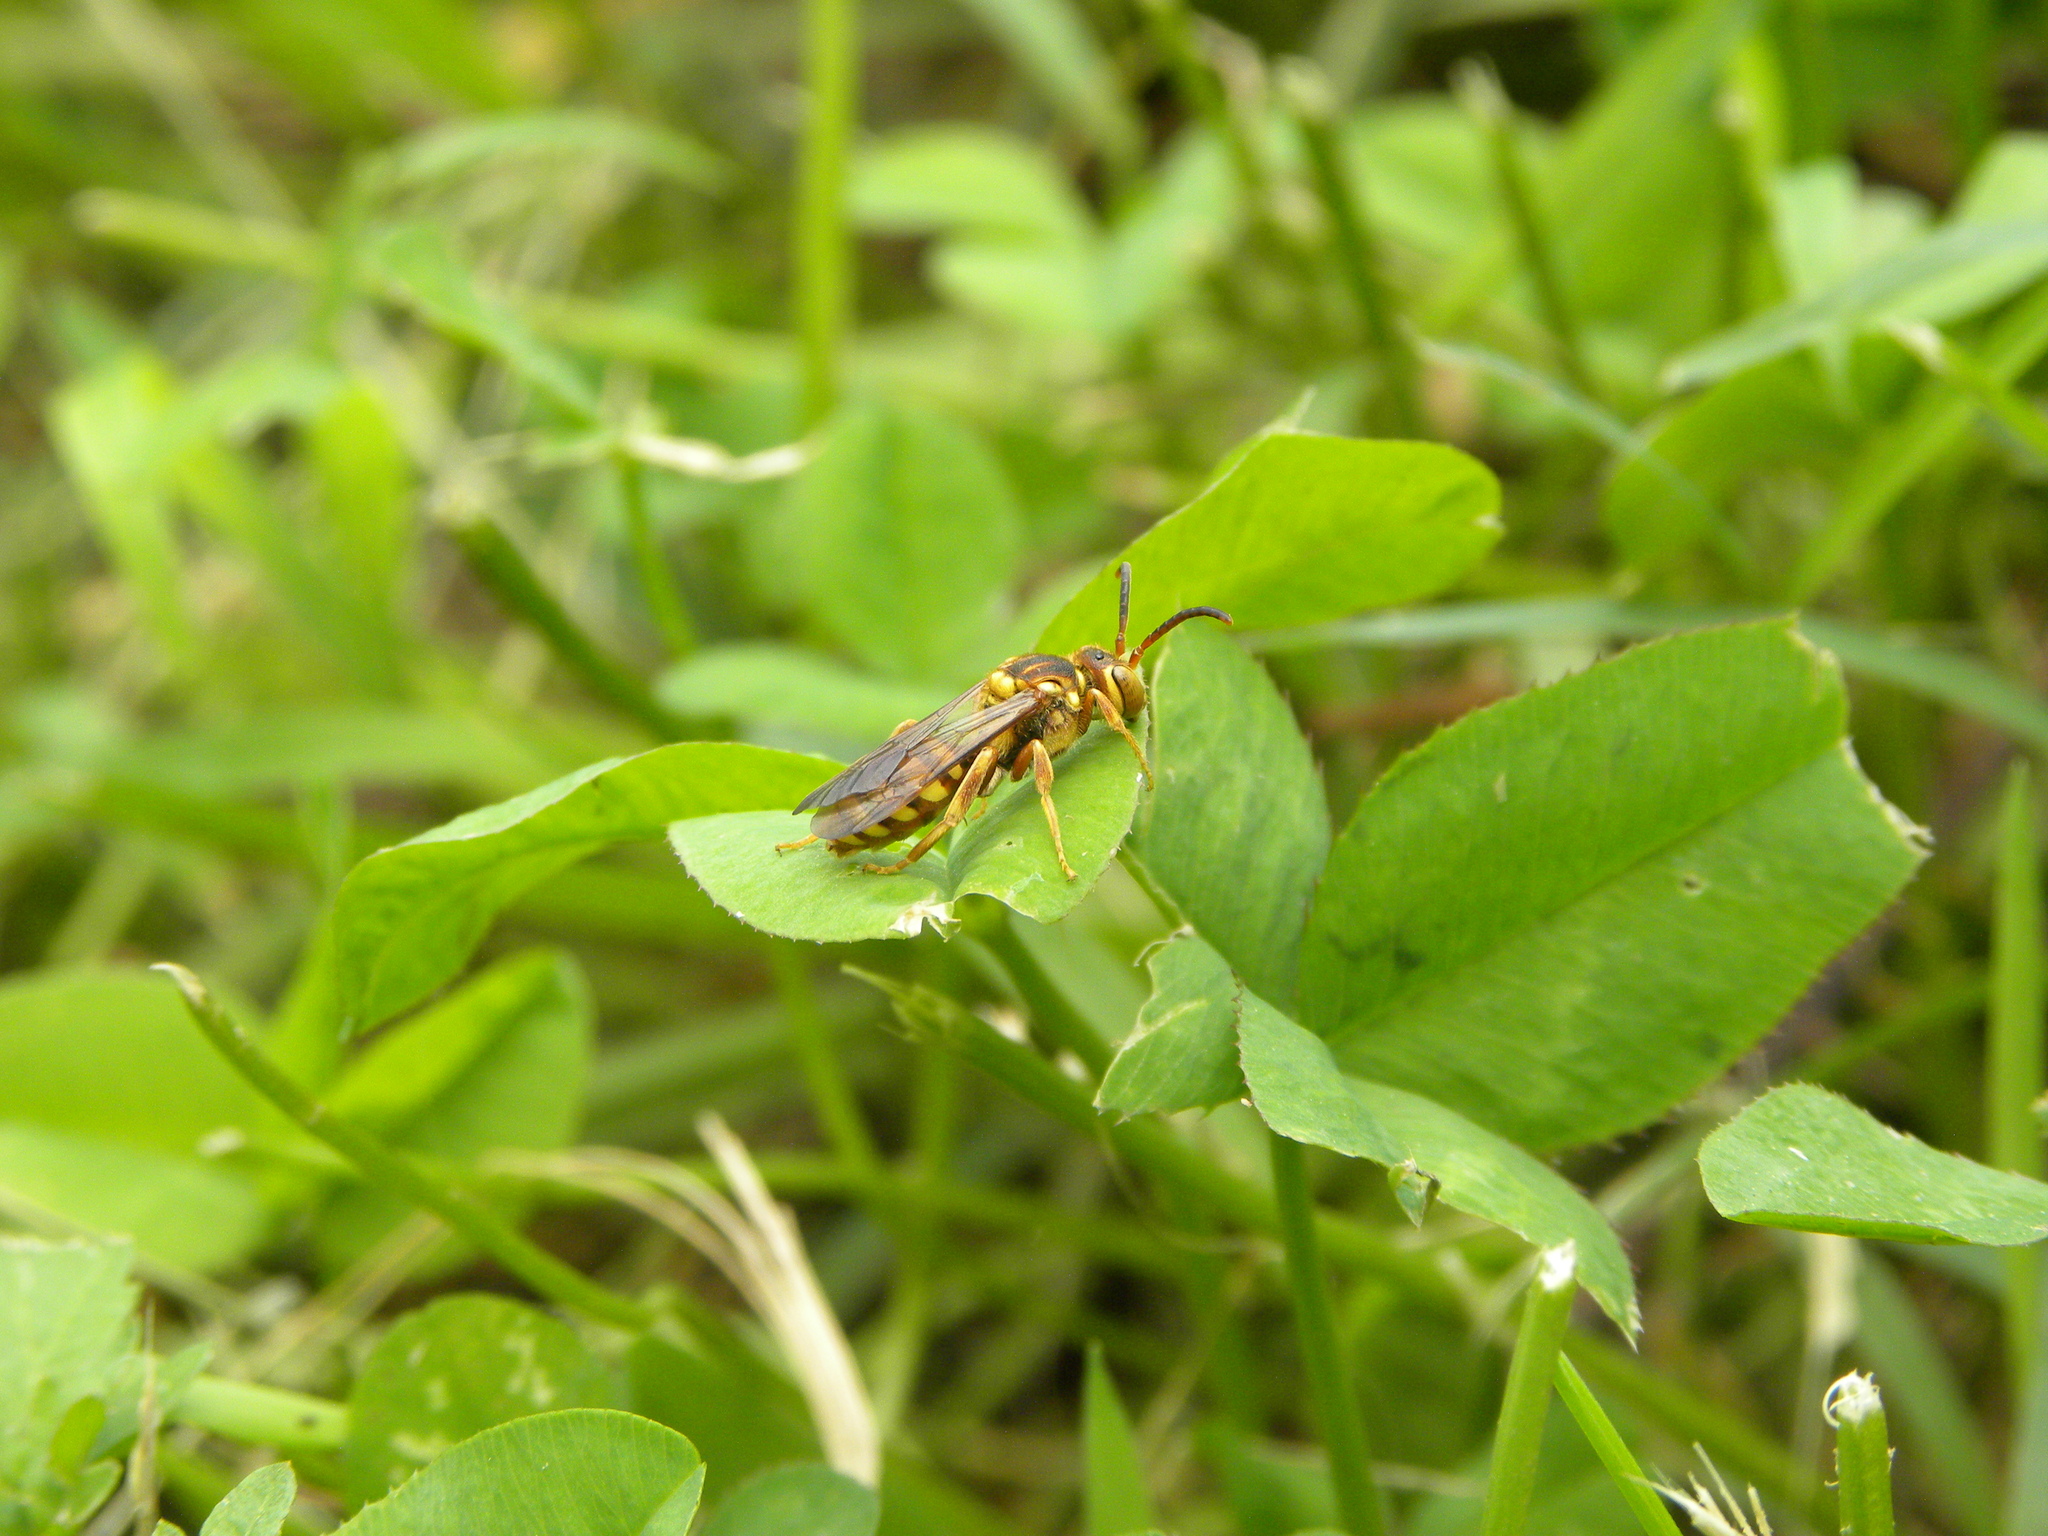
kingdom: Animalia
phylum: Arthropoda
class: Insecta
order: Hymenoptera
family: Apidae
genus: Nomada
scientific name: Nomada
